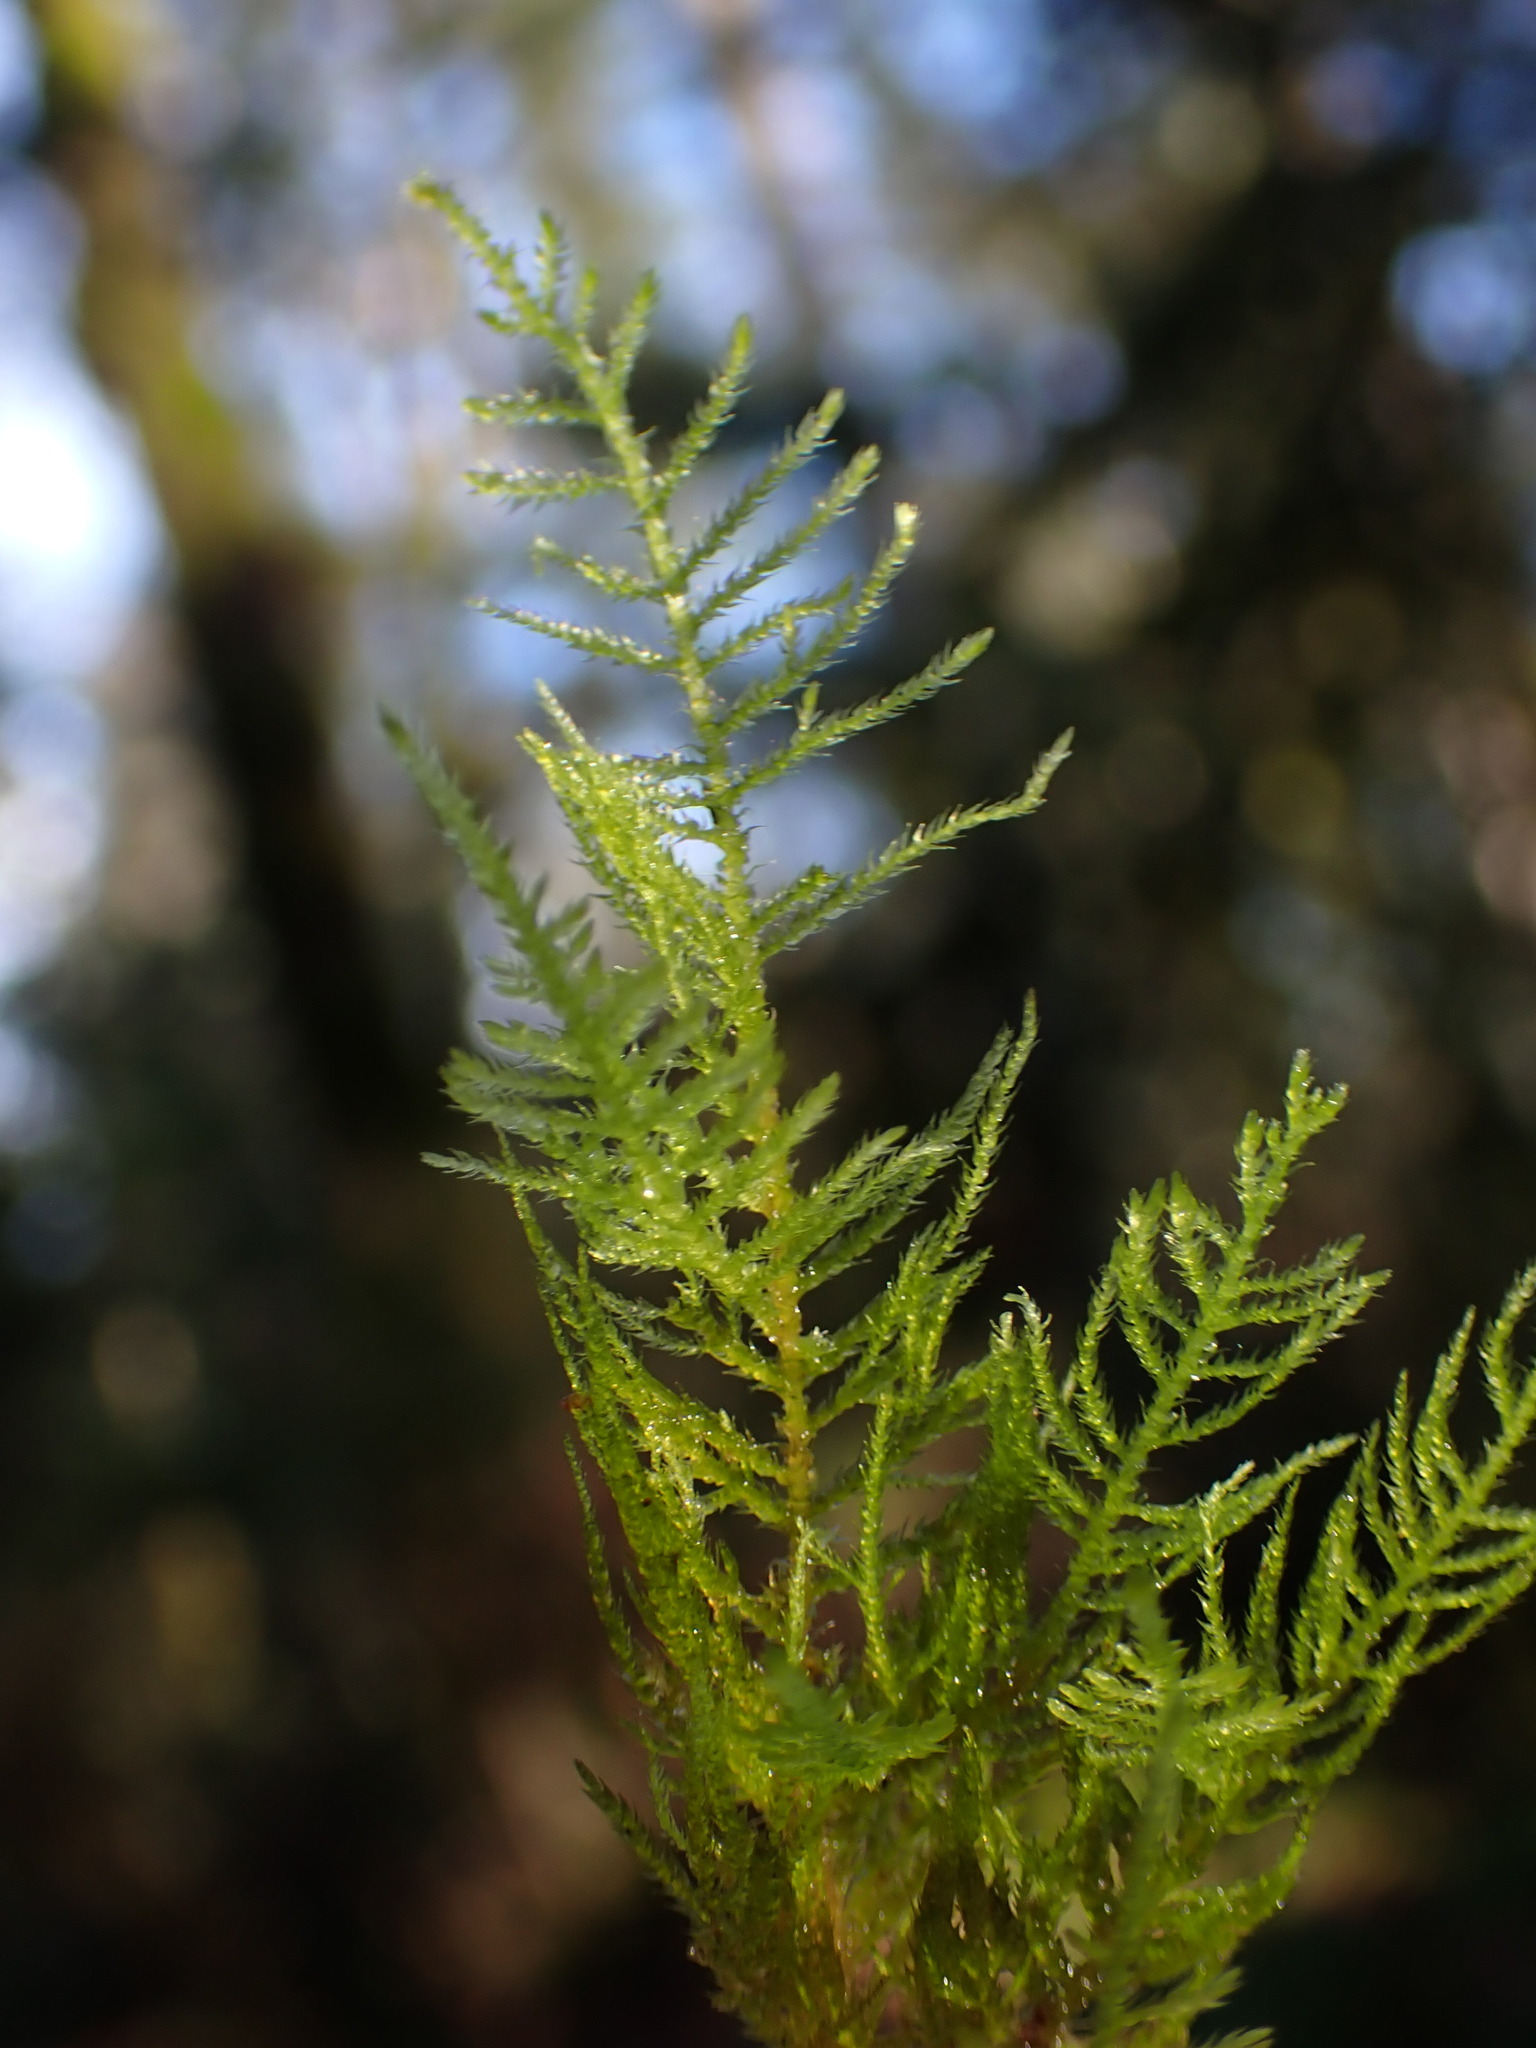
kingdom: Plantae
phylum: Bryophyta
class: Bryopsida
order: Hypnales
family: Brachytheciaceae
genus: Kindbergia
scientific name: Kindbergia praelonga
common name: Slender beaked moss
